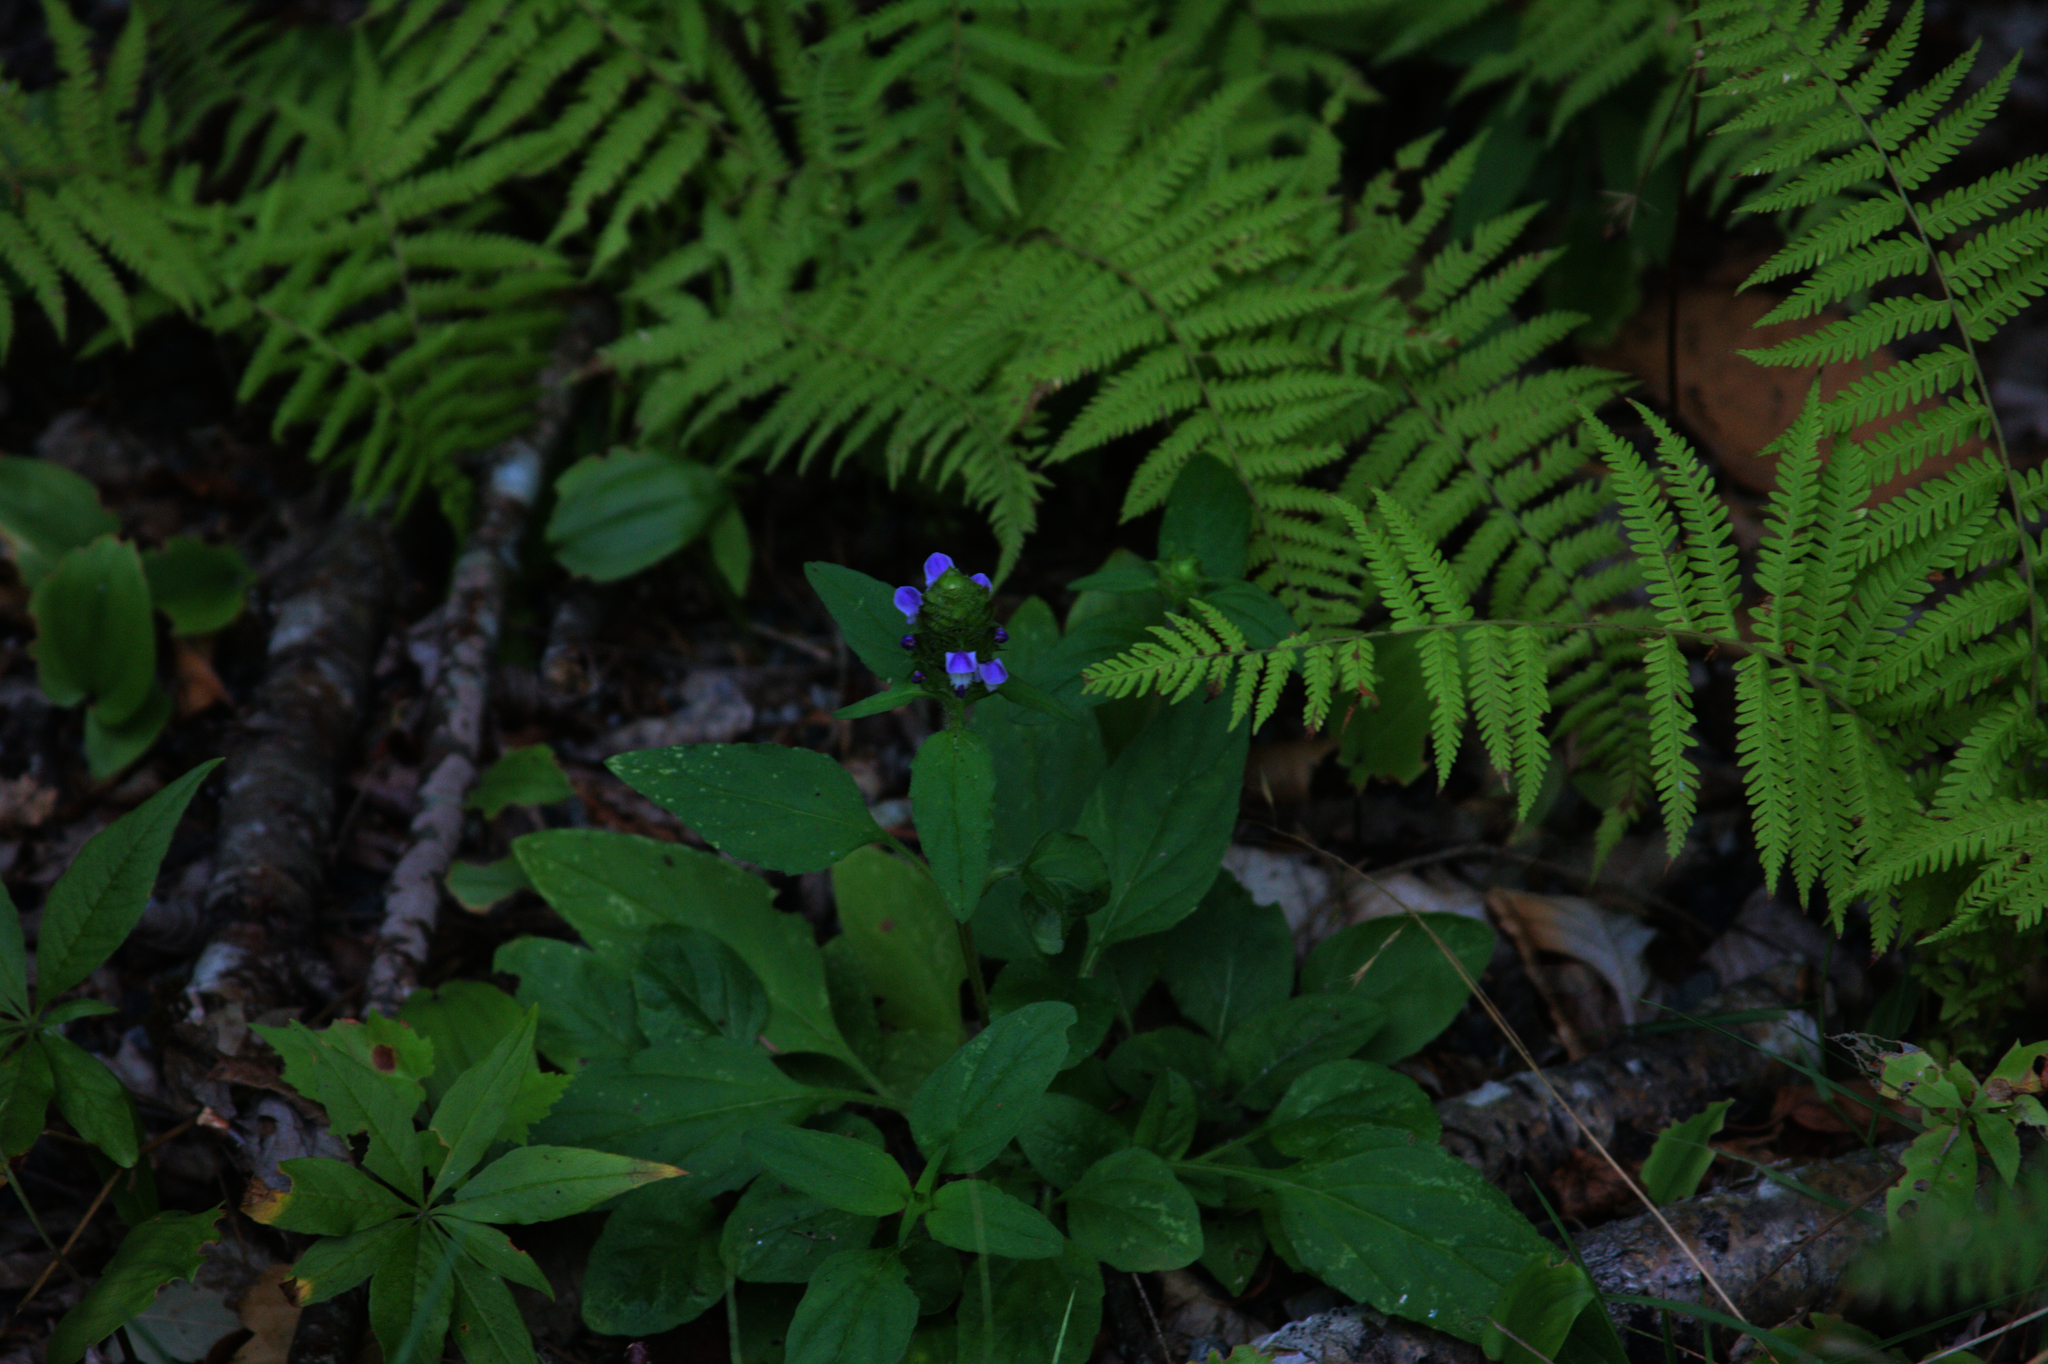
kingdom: Plantae
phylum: Tracheophyta
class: Magnoliopsida
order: Lamiales
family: Lamiaceae
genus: Prunella
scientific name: Prunella vulgaris
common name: Heal-all
